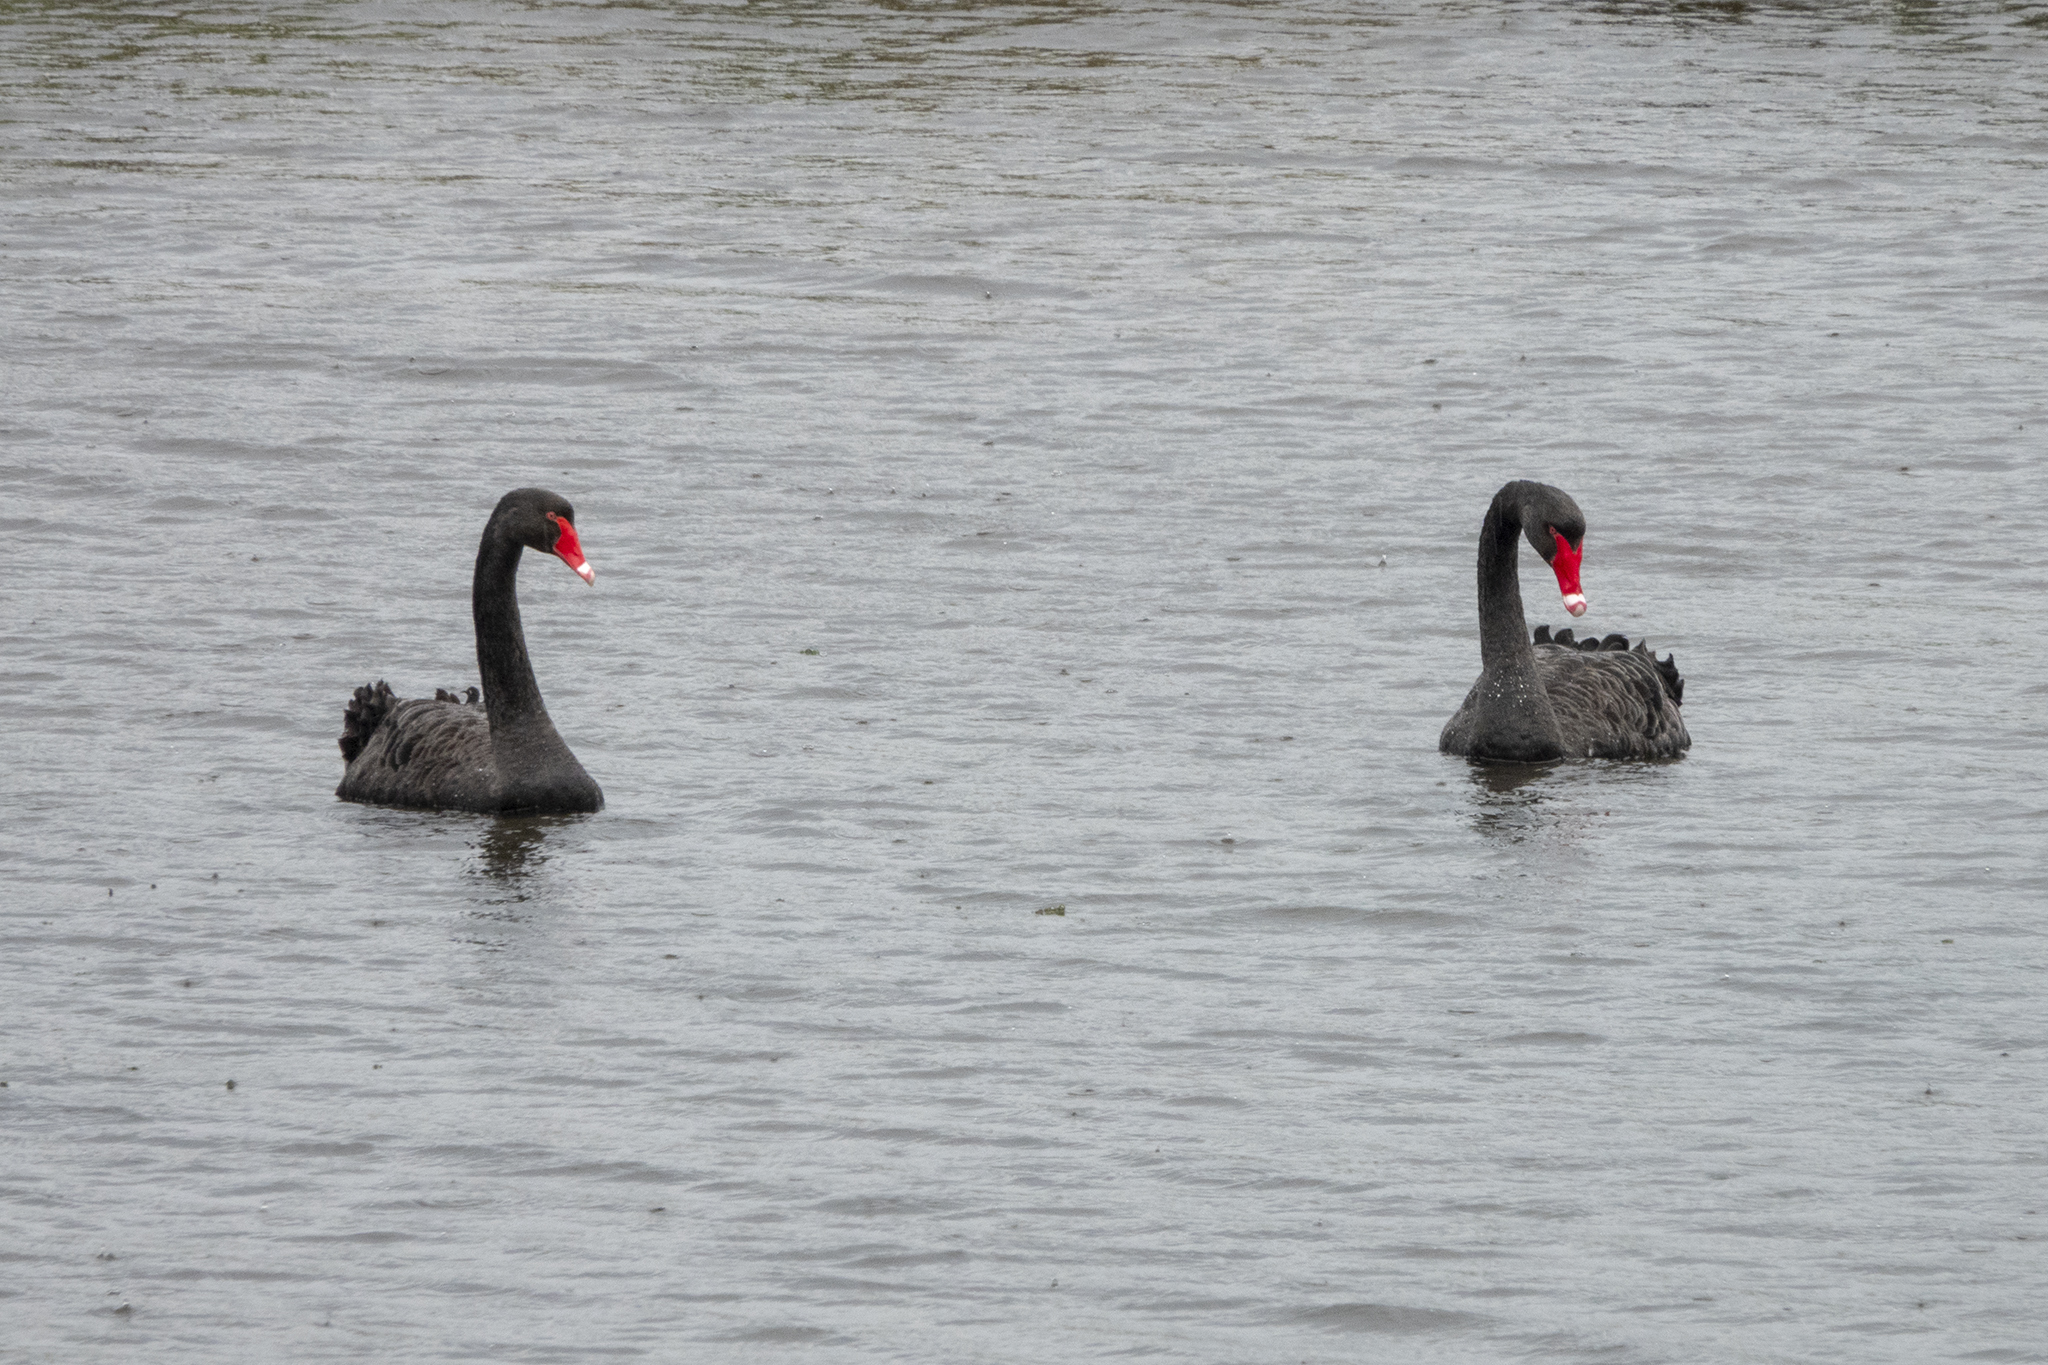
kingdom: Animalia
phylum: Chordata
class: Aves
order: Anseriformes
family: Anatidae
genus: Cygnus
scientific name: Cygnus atratus
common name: Black swan
